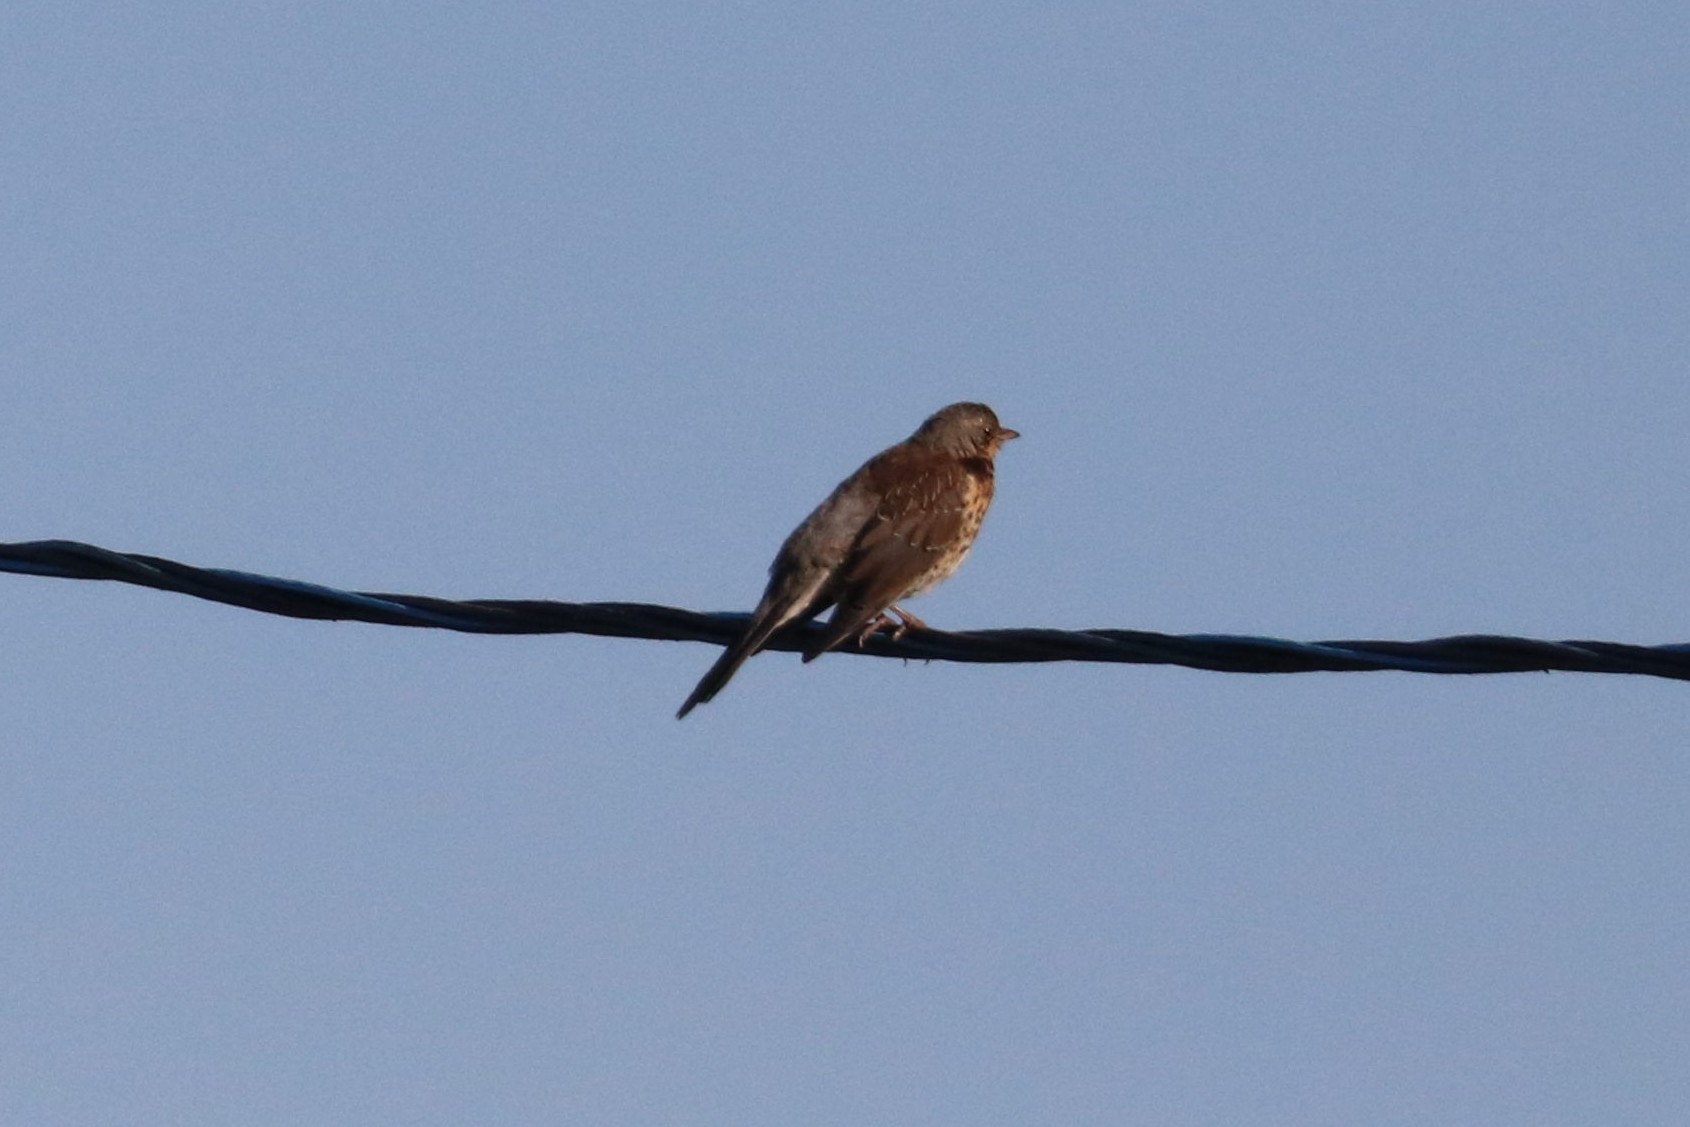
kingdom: Animalia
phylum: Chordata
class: Aves
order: Passeriformes
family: Turdidae
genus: Turdus
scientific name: Turdus pilaris
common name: Fieldfare
